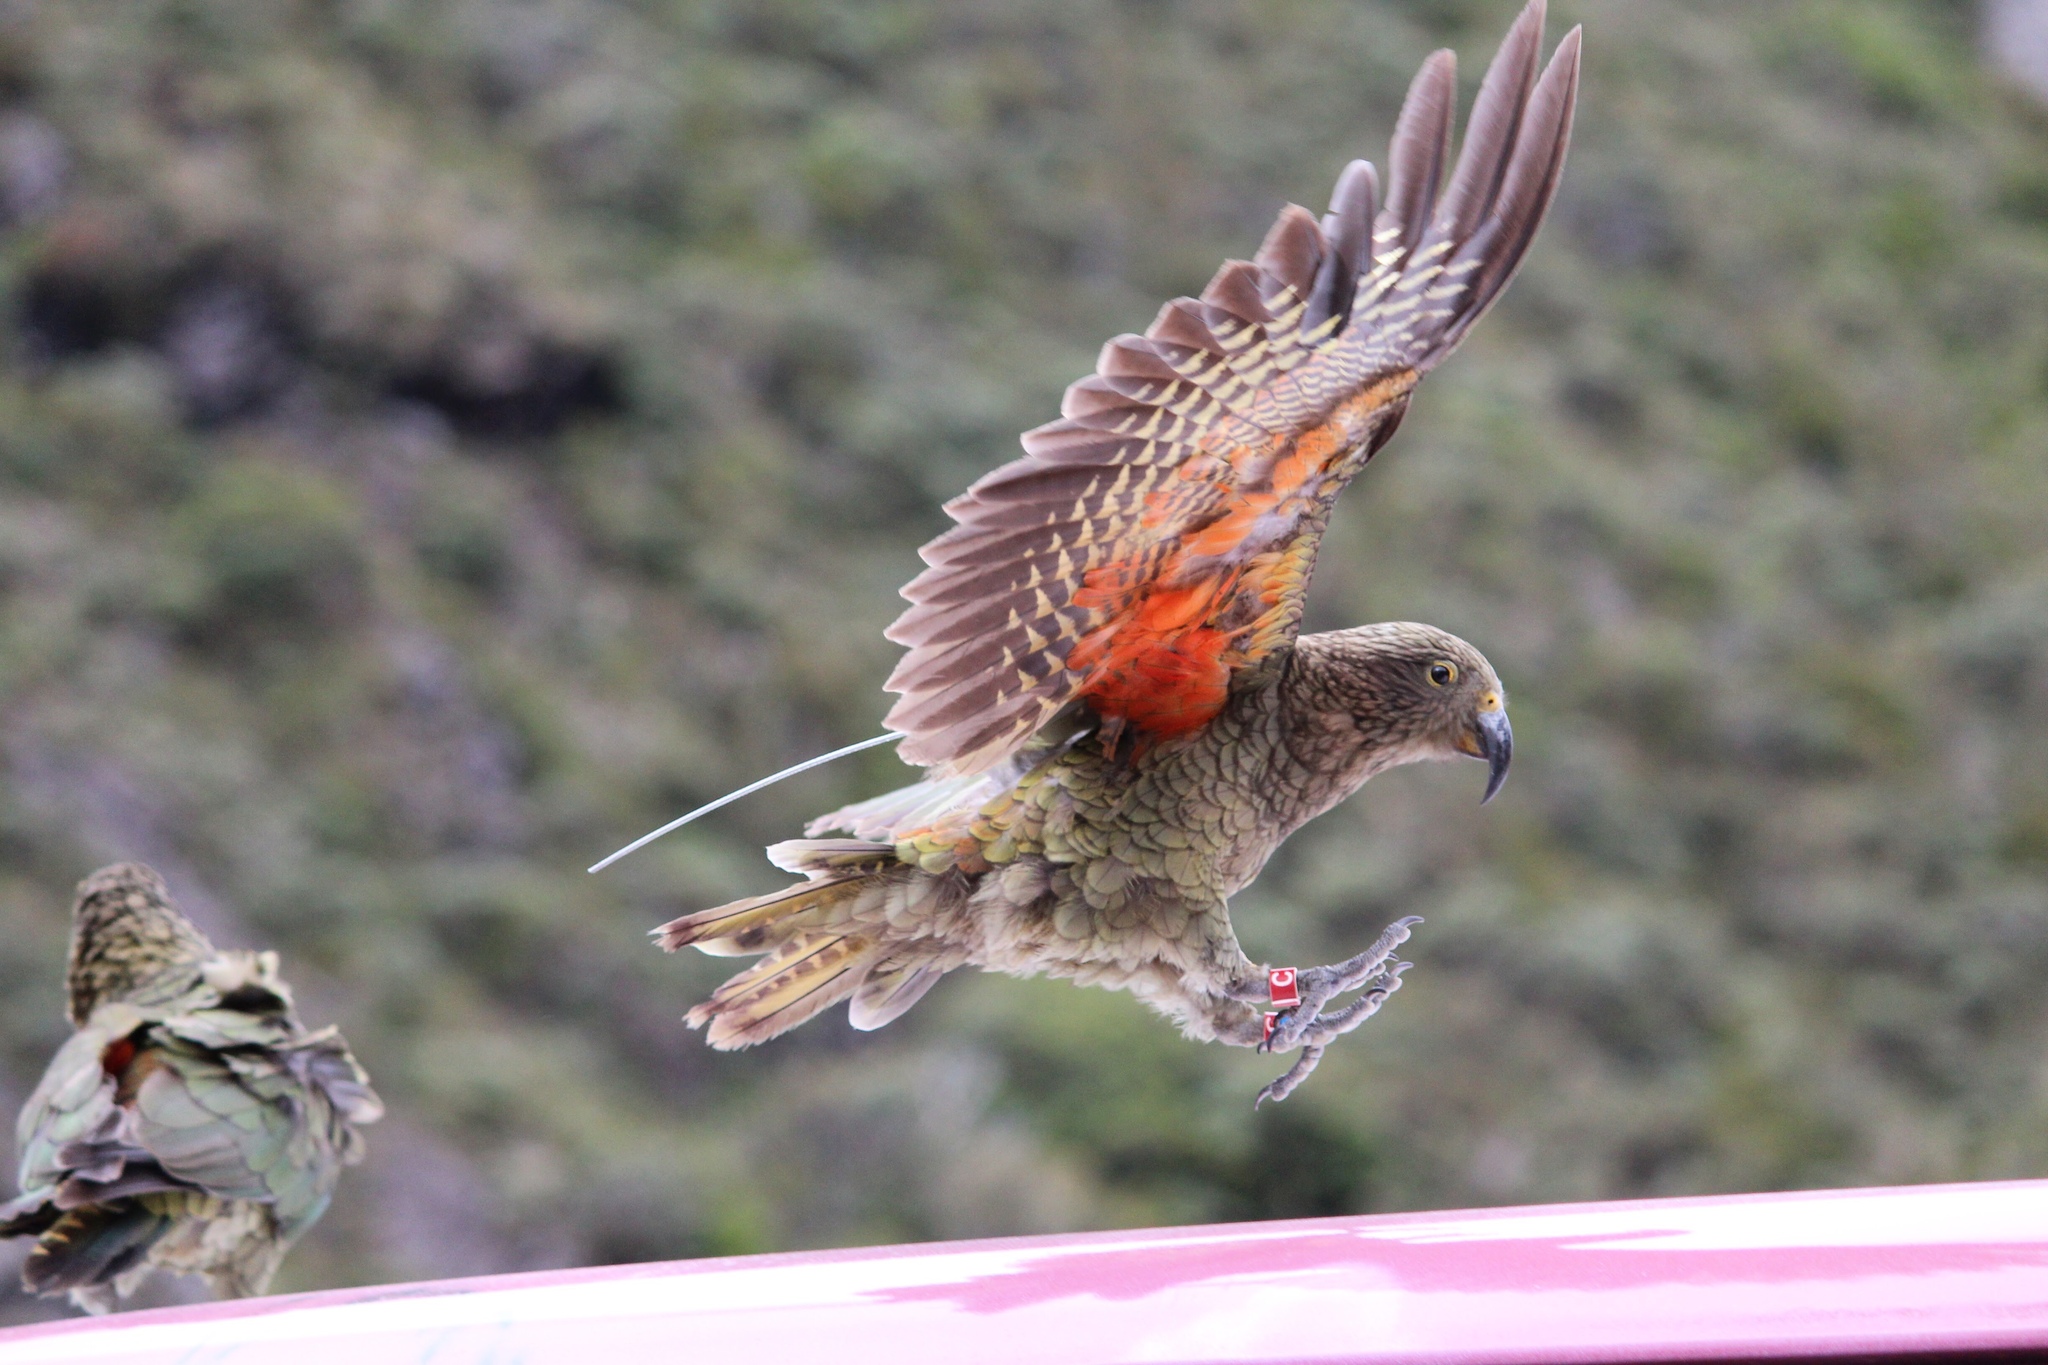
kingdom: Animalia
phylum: Chordata
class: Aves
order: Psittaciformes
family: Psittacidae
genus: Nestor
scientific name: Nestor notabilis
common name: Kea
